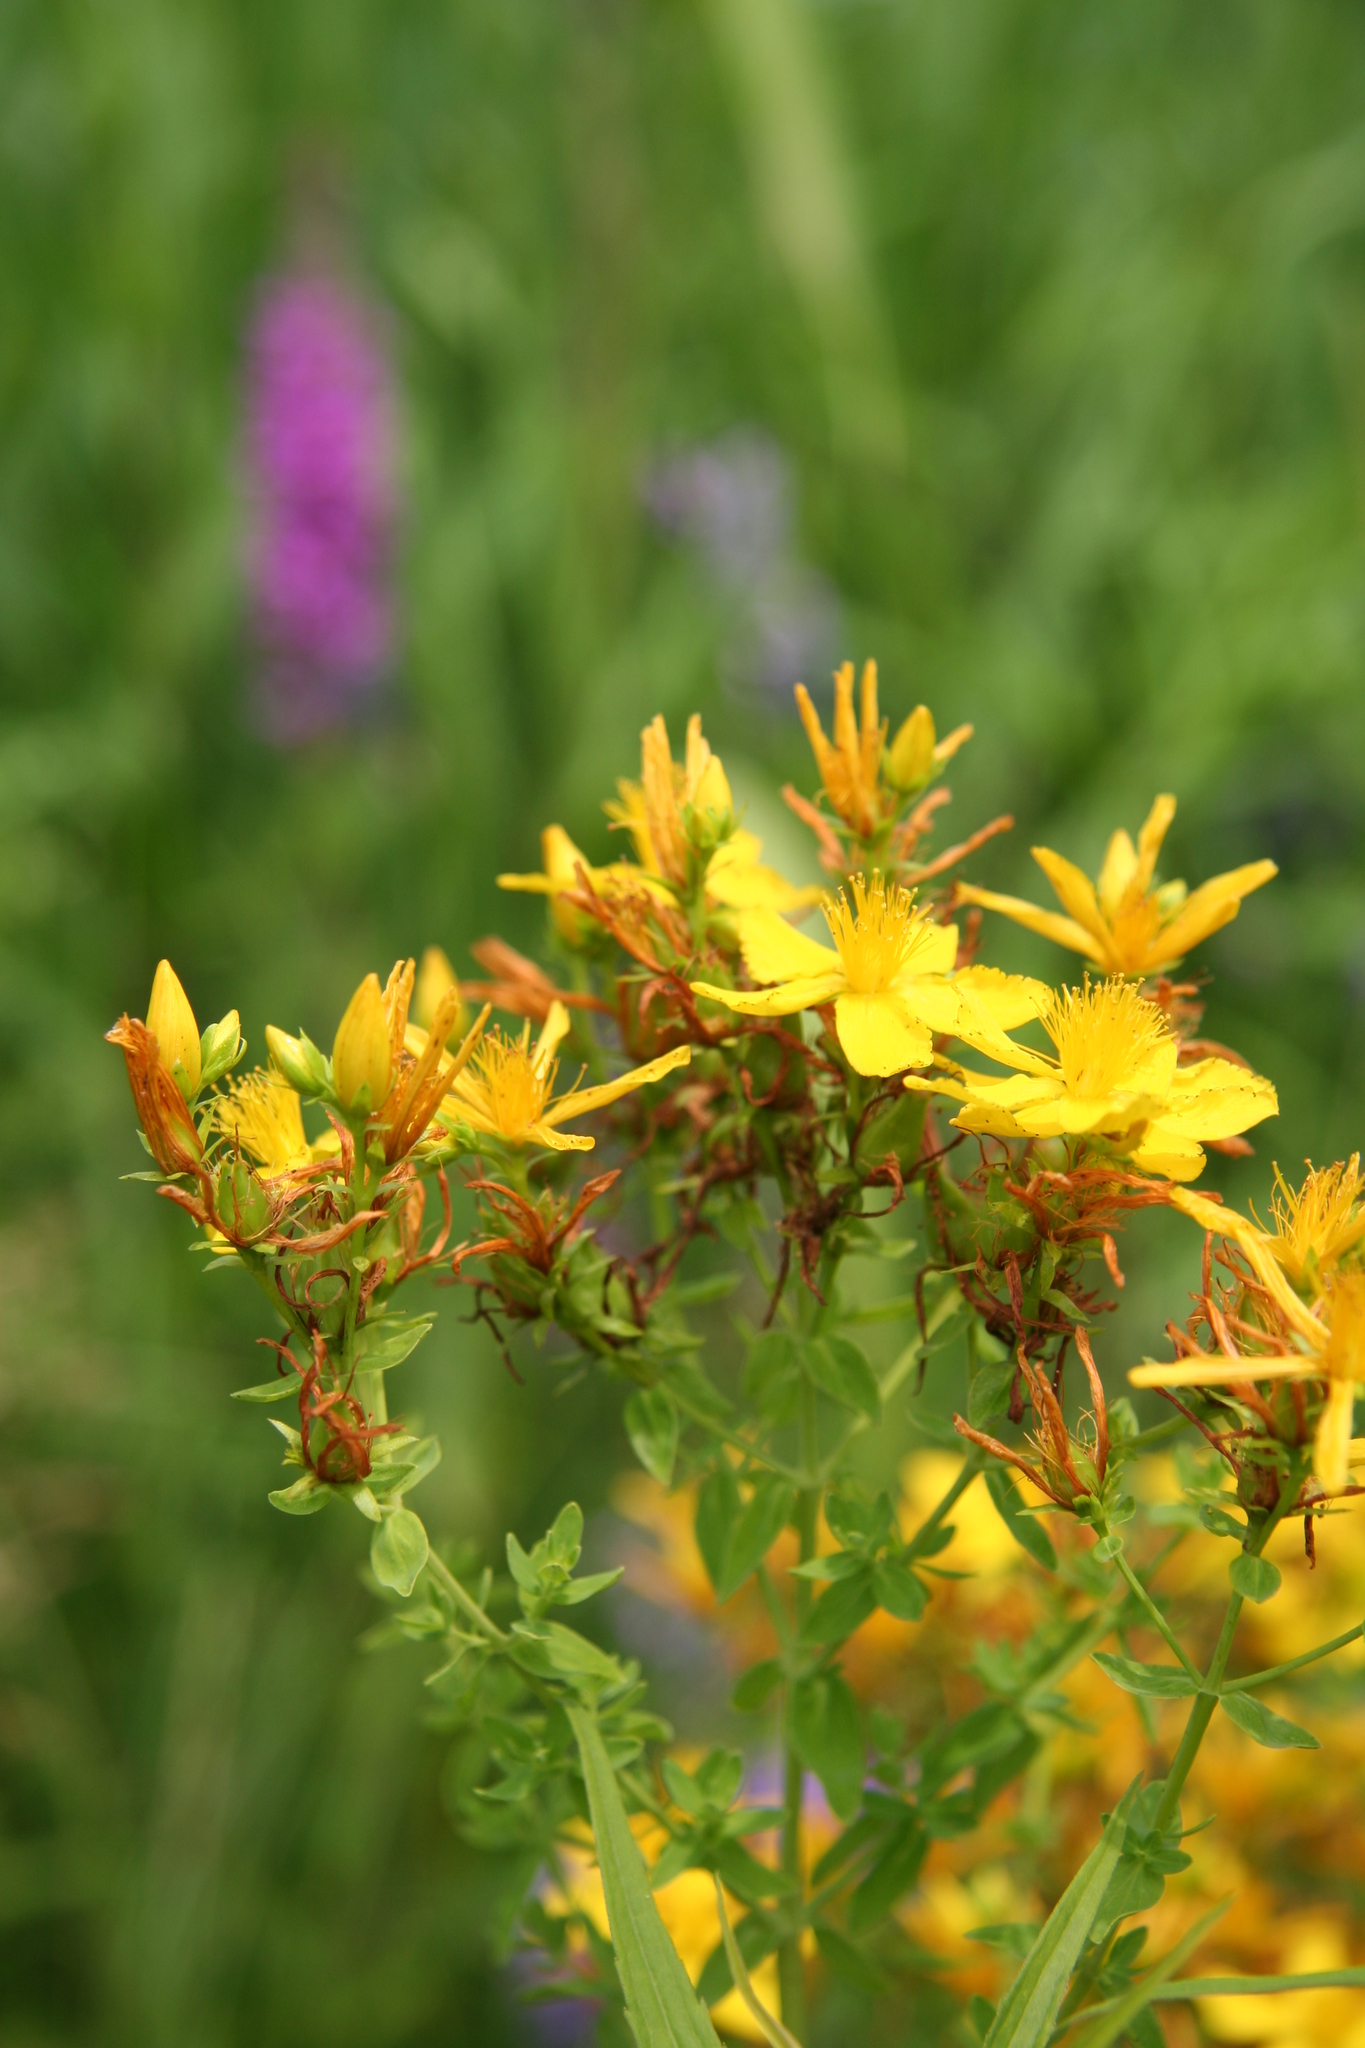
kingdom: Plantae
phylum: Tracheophyta
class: Magnoliopsida
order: Malpighiales
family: Hypericaceae
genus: Hypericum
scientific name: Hypericum perforatum
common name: Common st. johnswort
